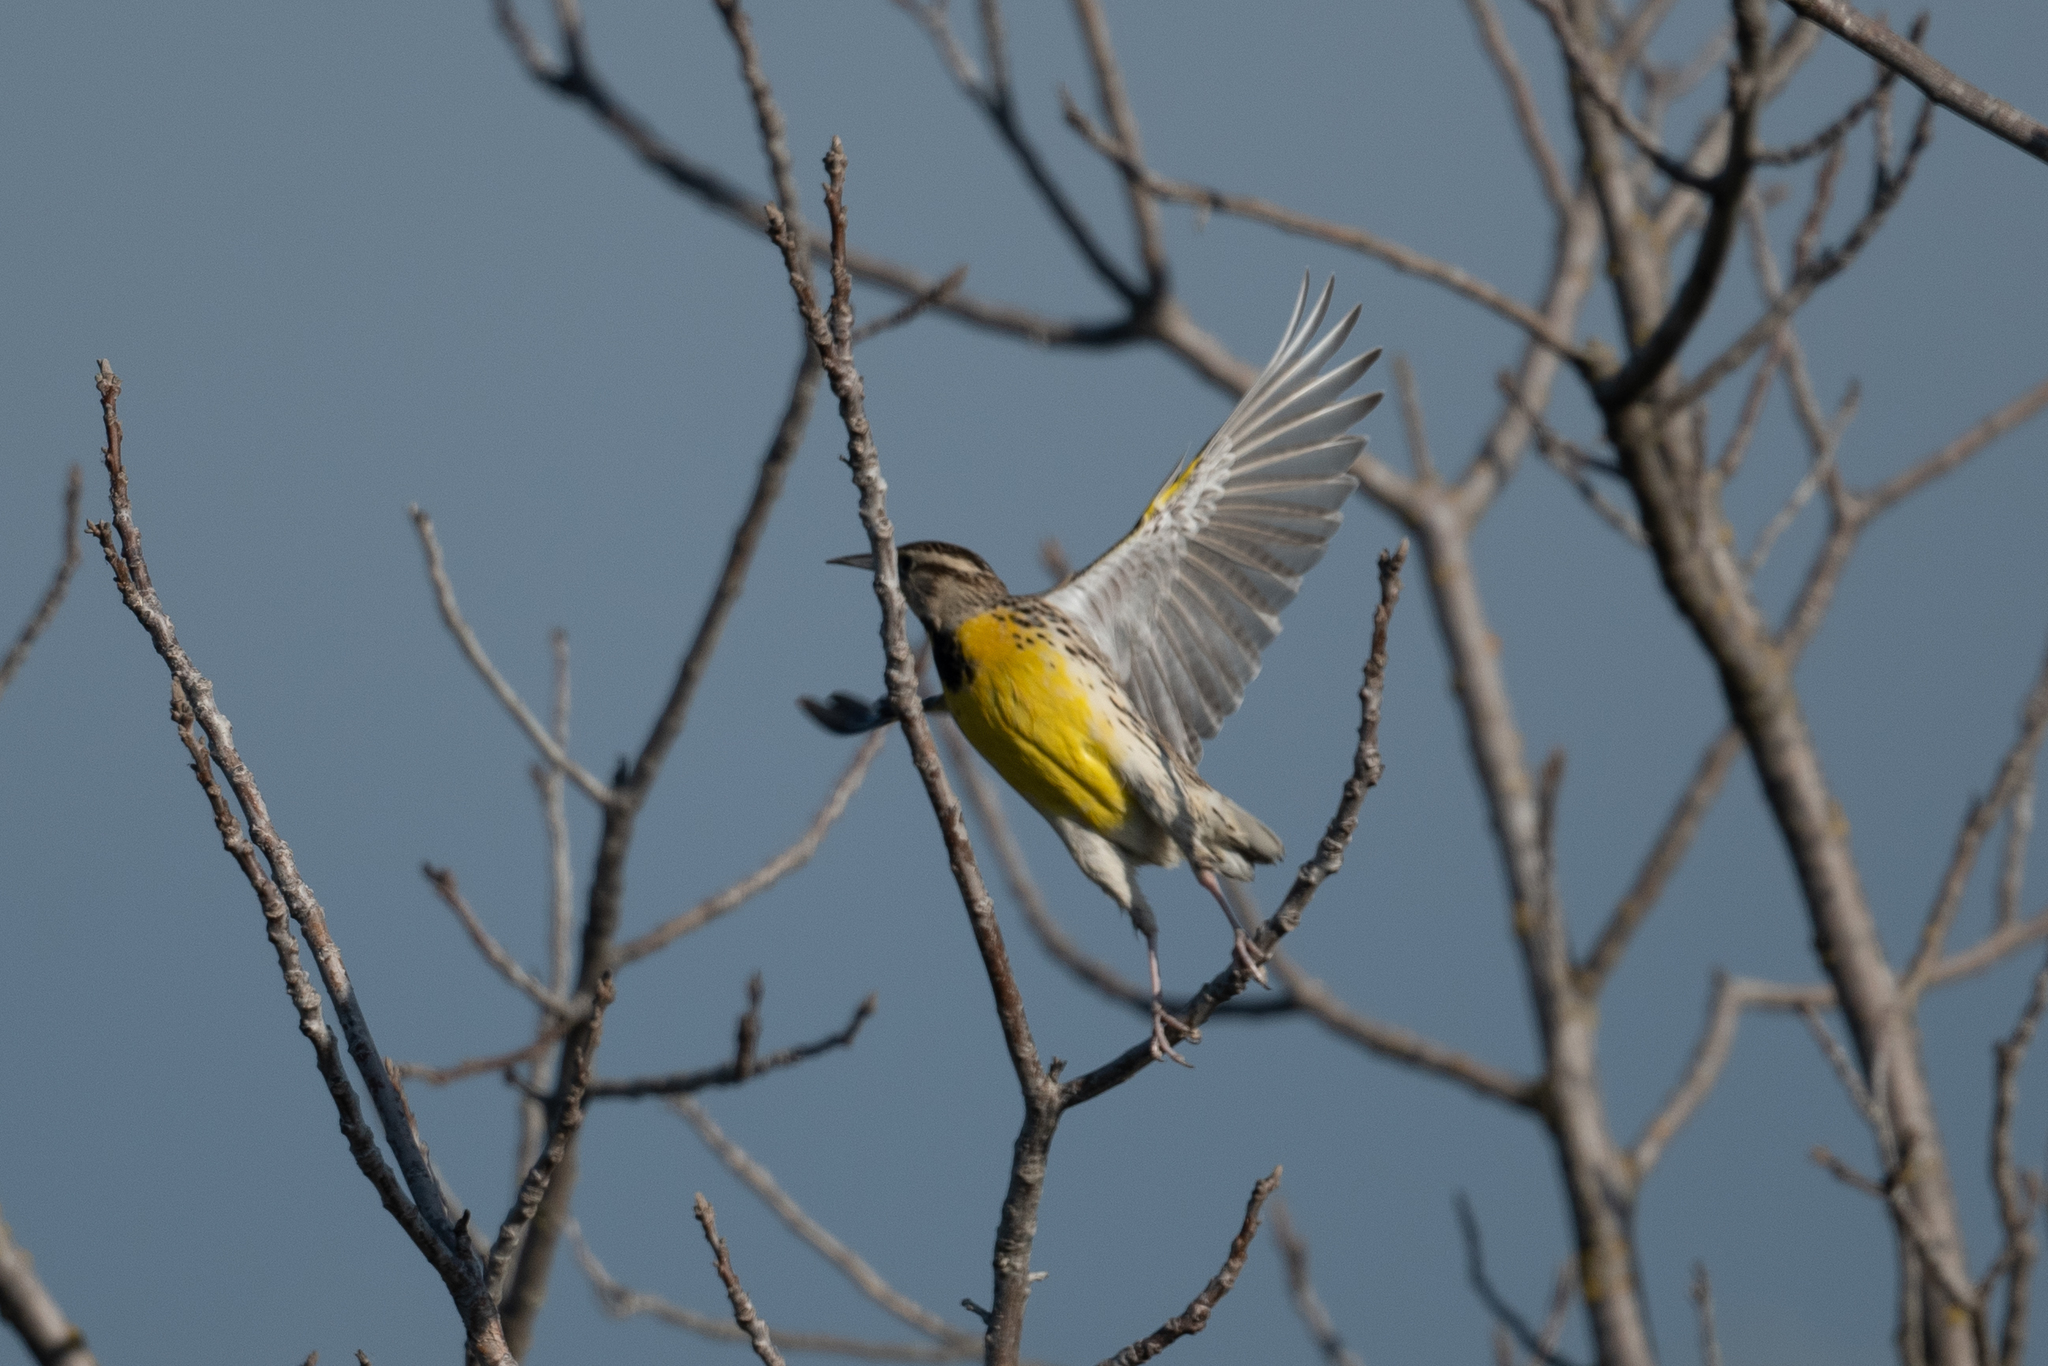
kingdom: Animalia
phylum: Chordata
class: Aves
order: Passeriformes
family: Icteridae
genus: Sturnella
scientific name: Sturnella neglecta
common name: Western meadowlark
